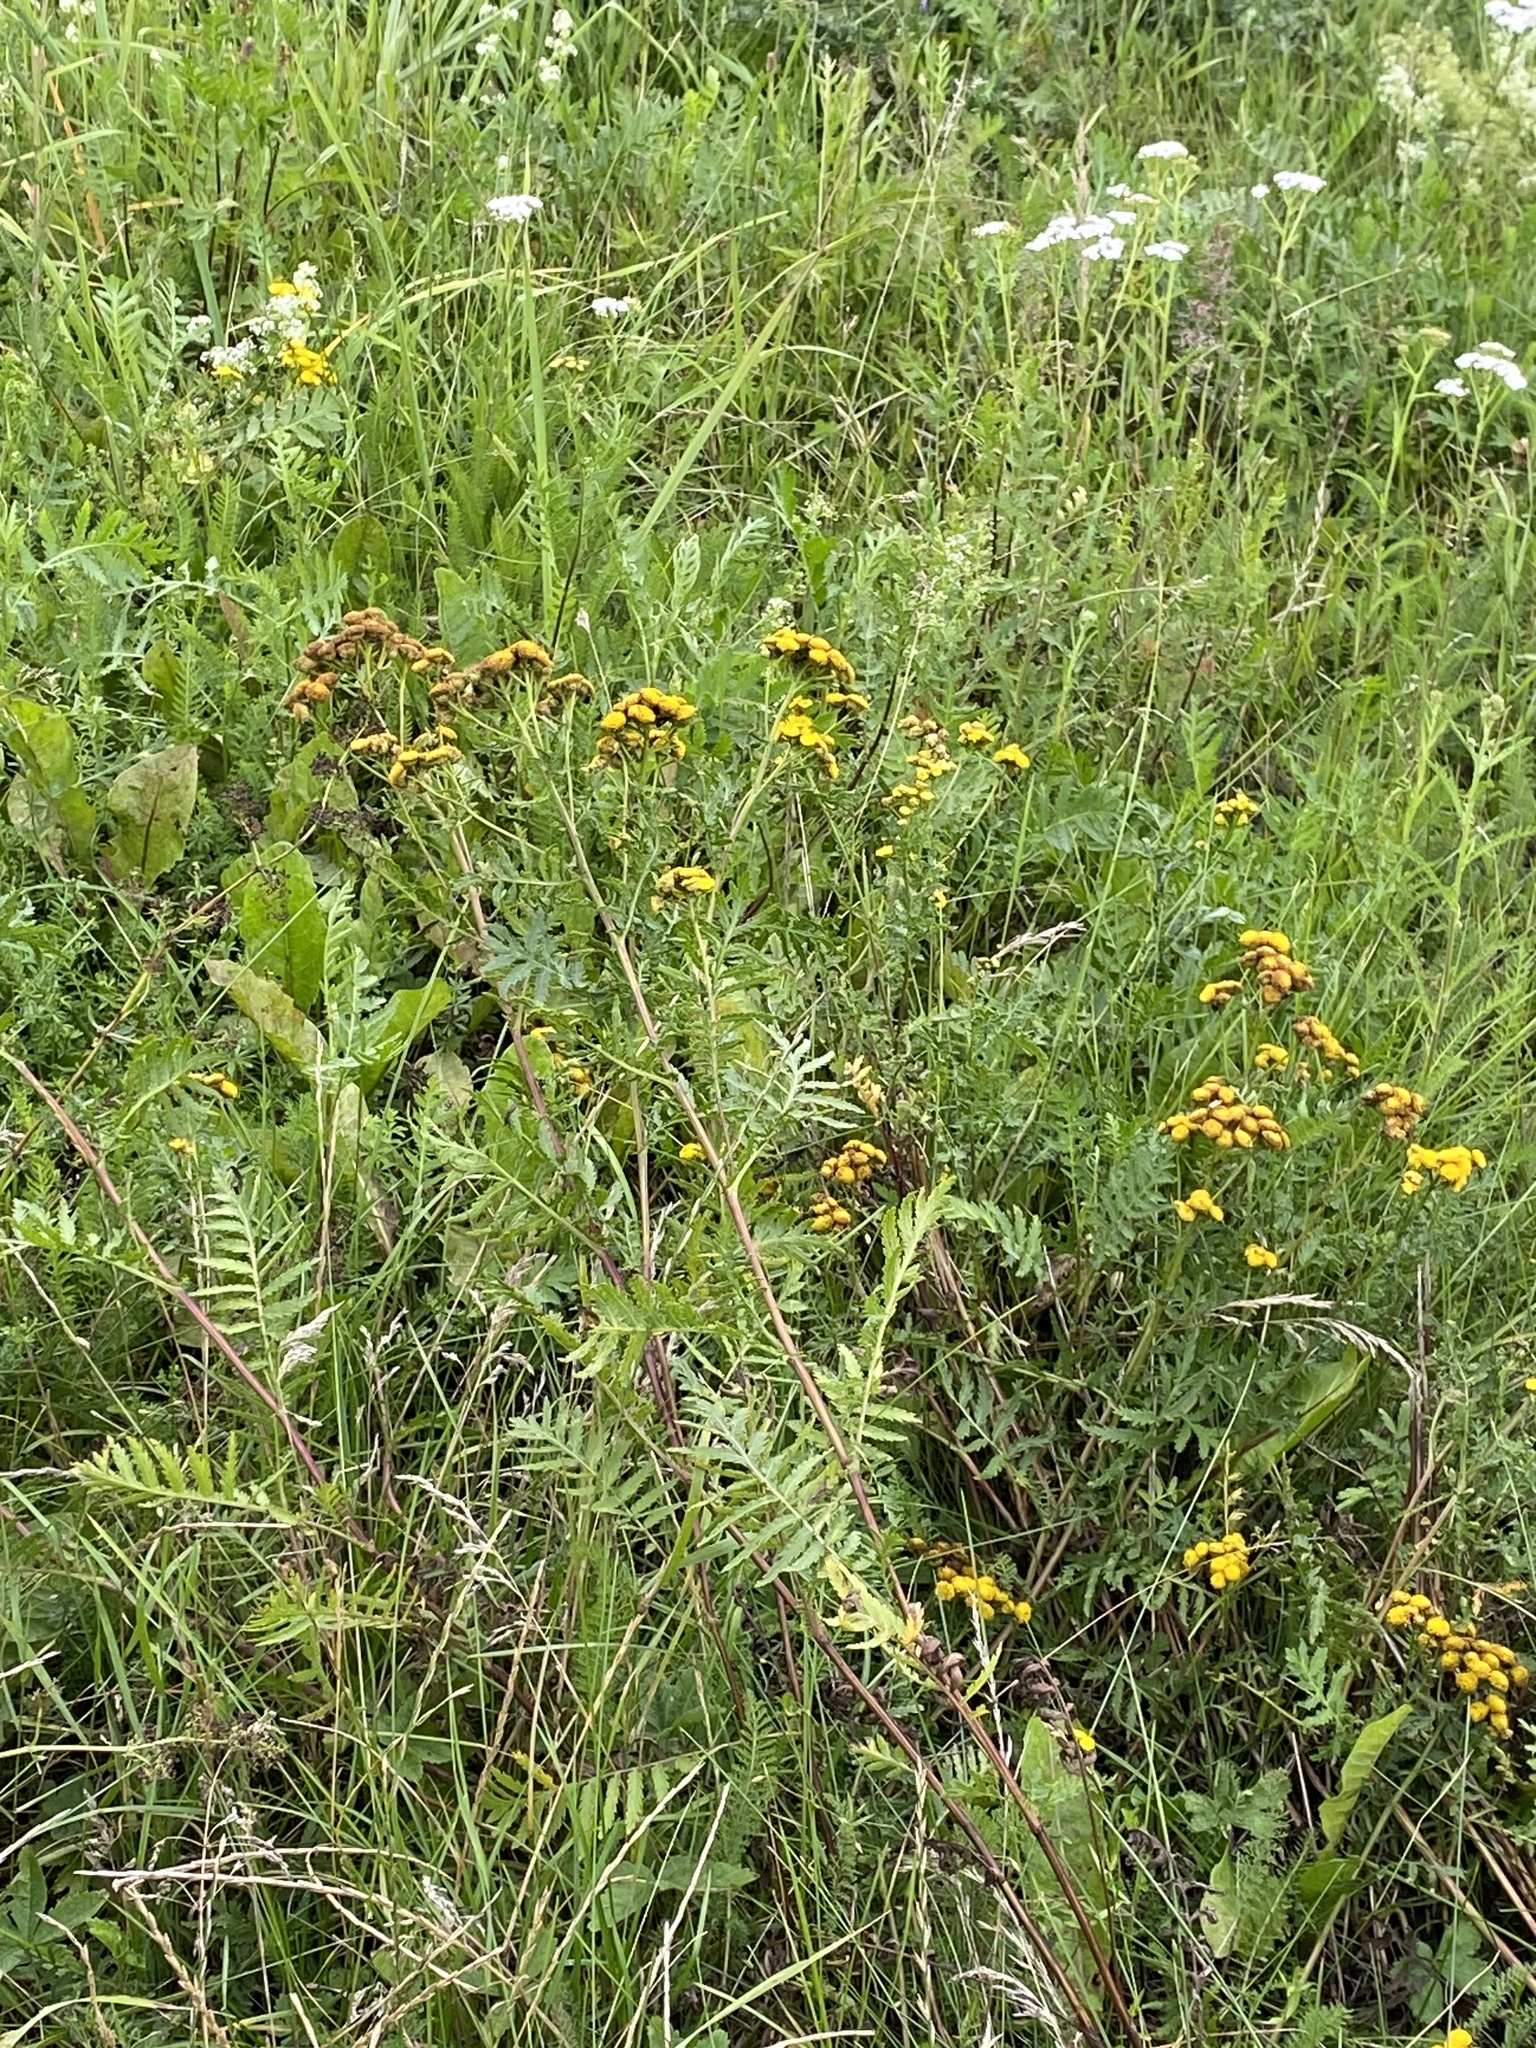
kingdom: Plantae
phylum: Tracheophyta
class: Magnoliopsida
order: Asterales
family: Asteraceae
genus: Tanacetum
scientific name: Tanacetum vulgare
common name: Common tansy
